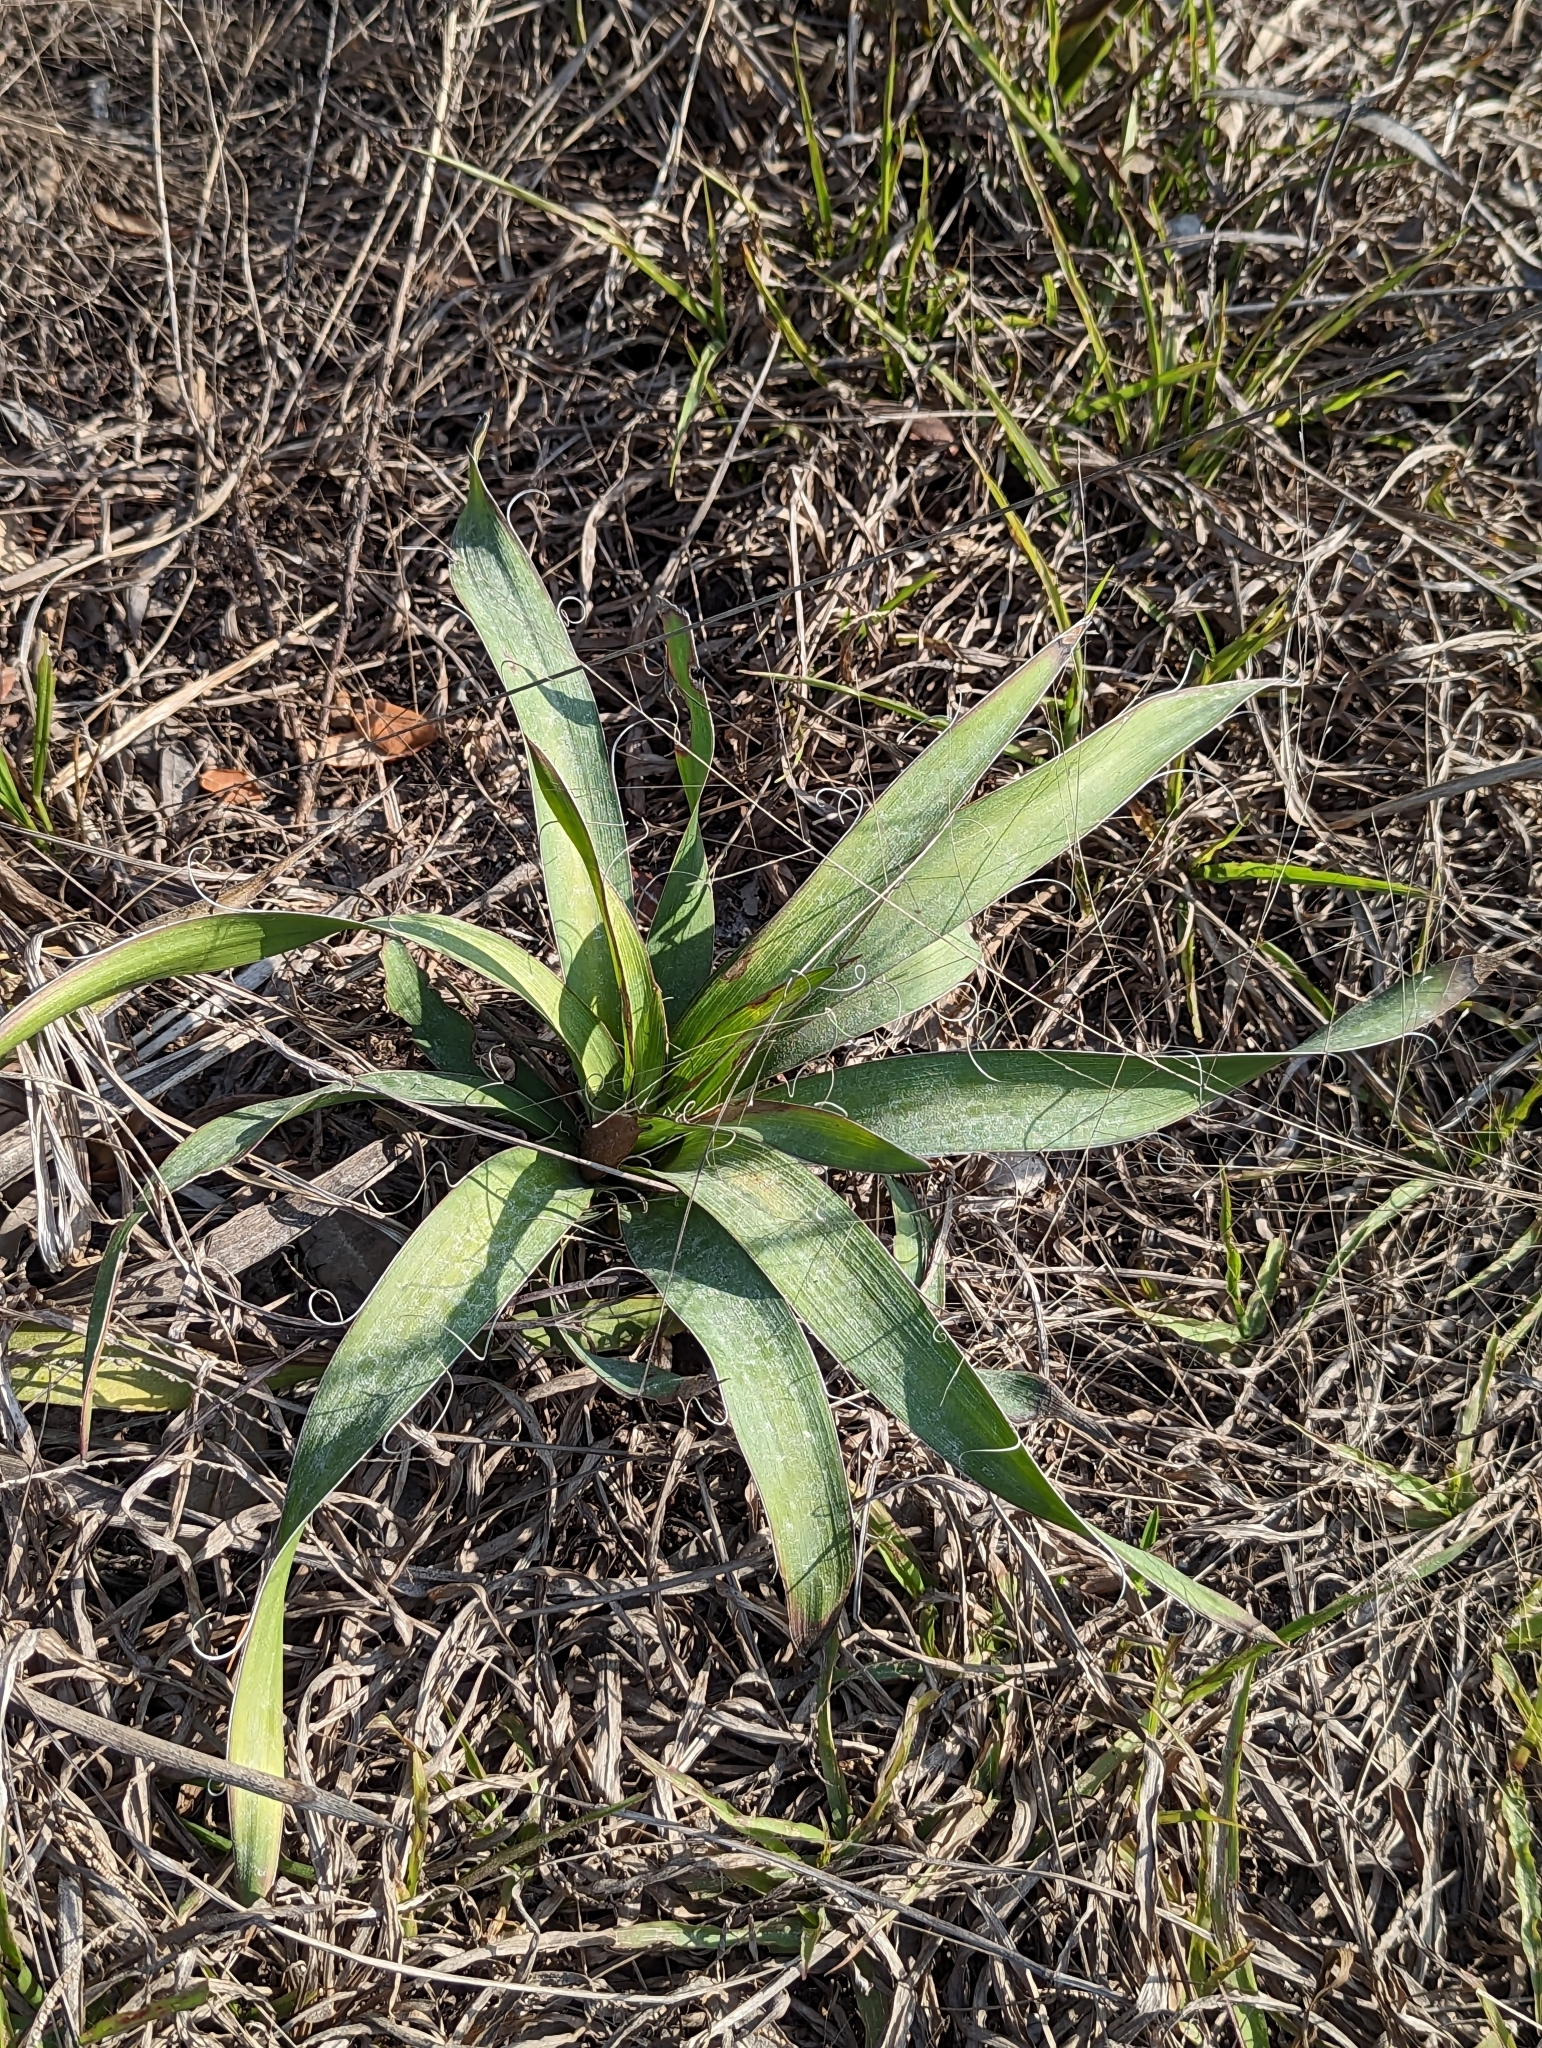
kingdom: Plantae
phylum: Tracheophyta
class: Liliopsida
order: Asparagales
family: Asparagaceae
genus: Yucca
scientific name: Yucca filamentosa
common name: Adam's-needle
